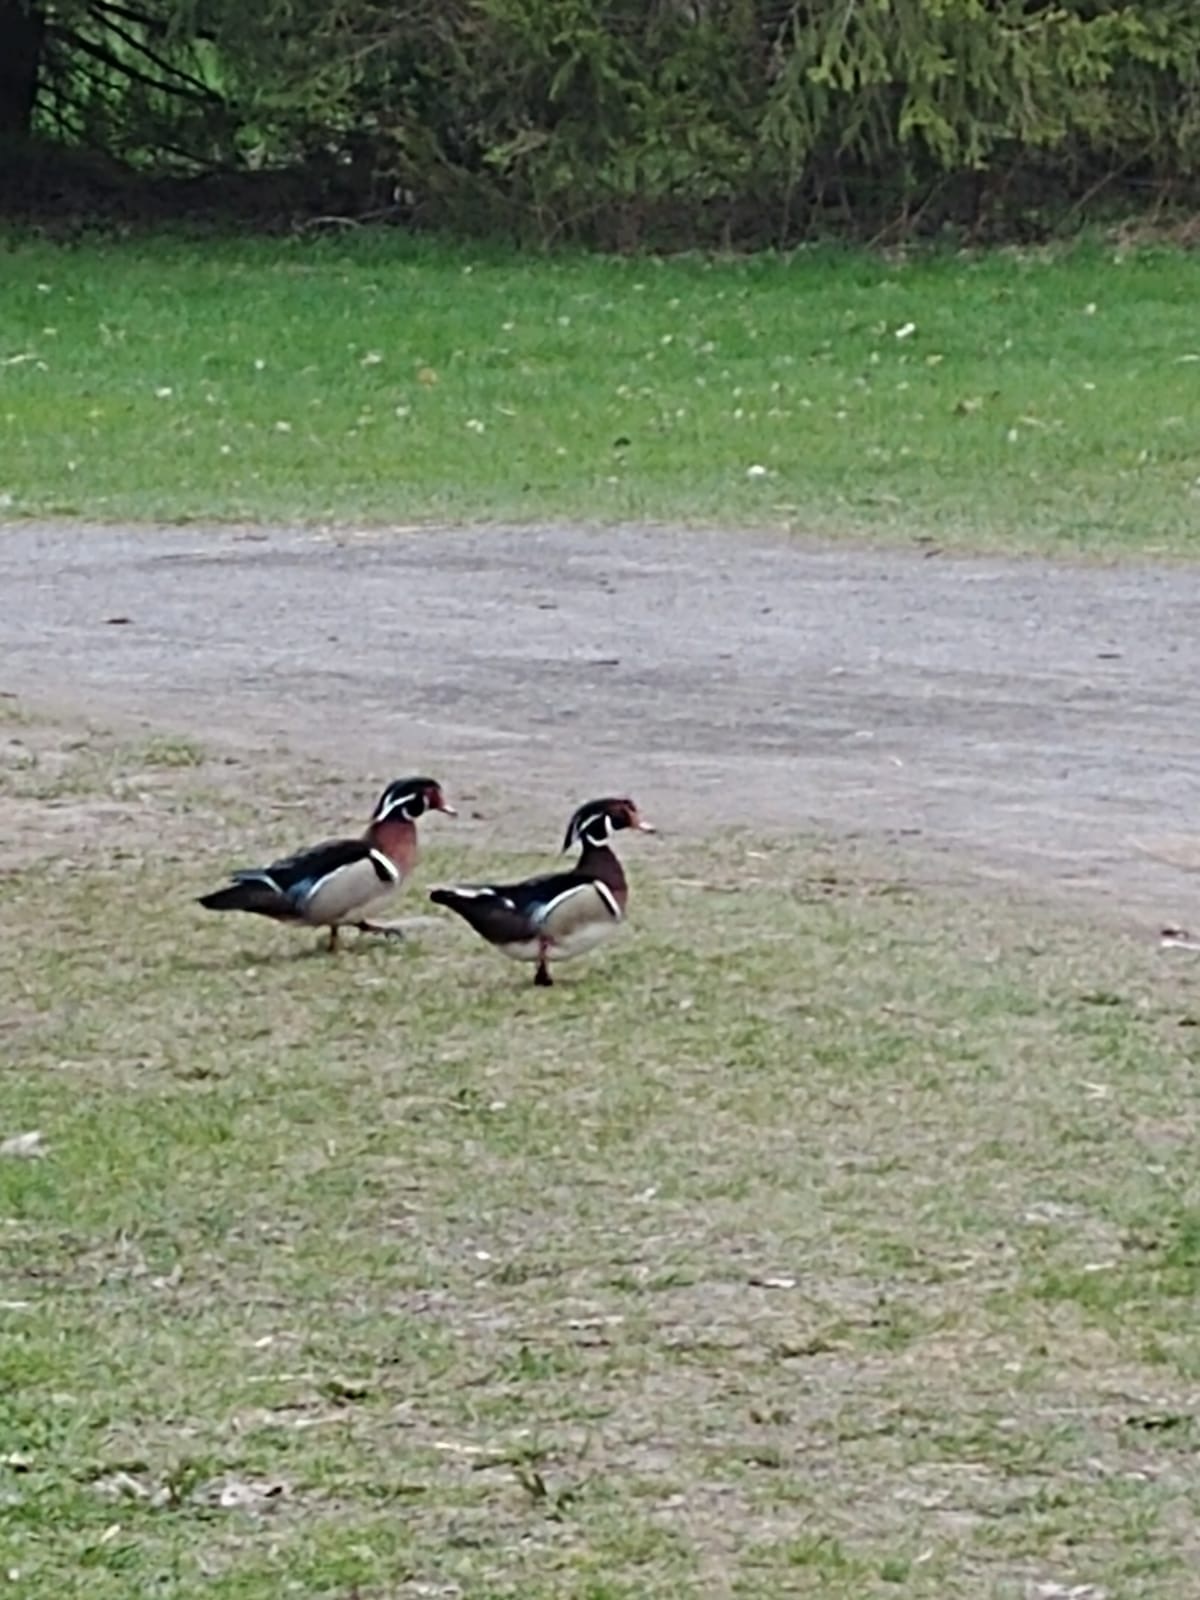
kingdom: Animalia
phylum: Chordata
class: Aves
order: Anseriformes
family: Anatidae
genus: Aix
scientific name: Aix sponsa
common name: Wood duck
